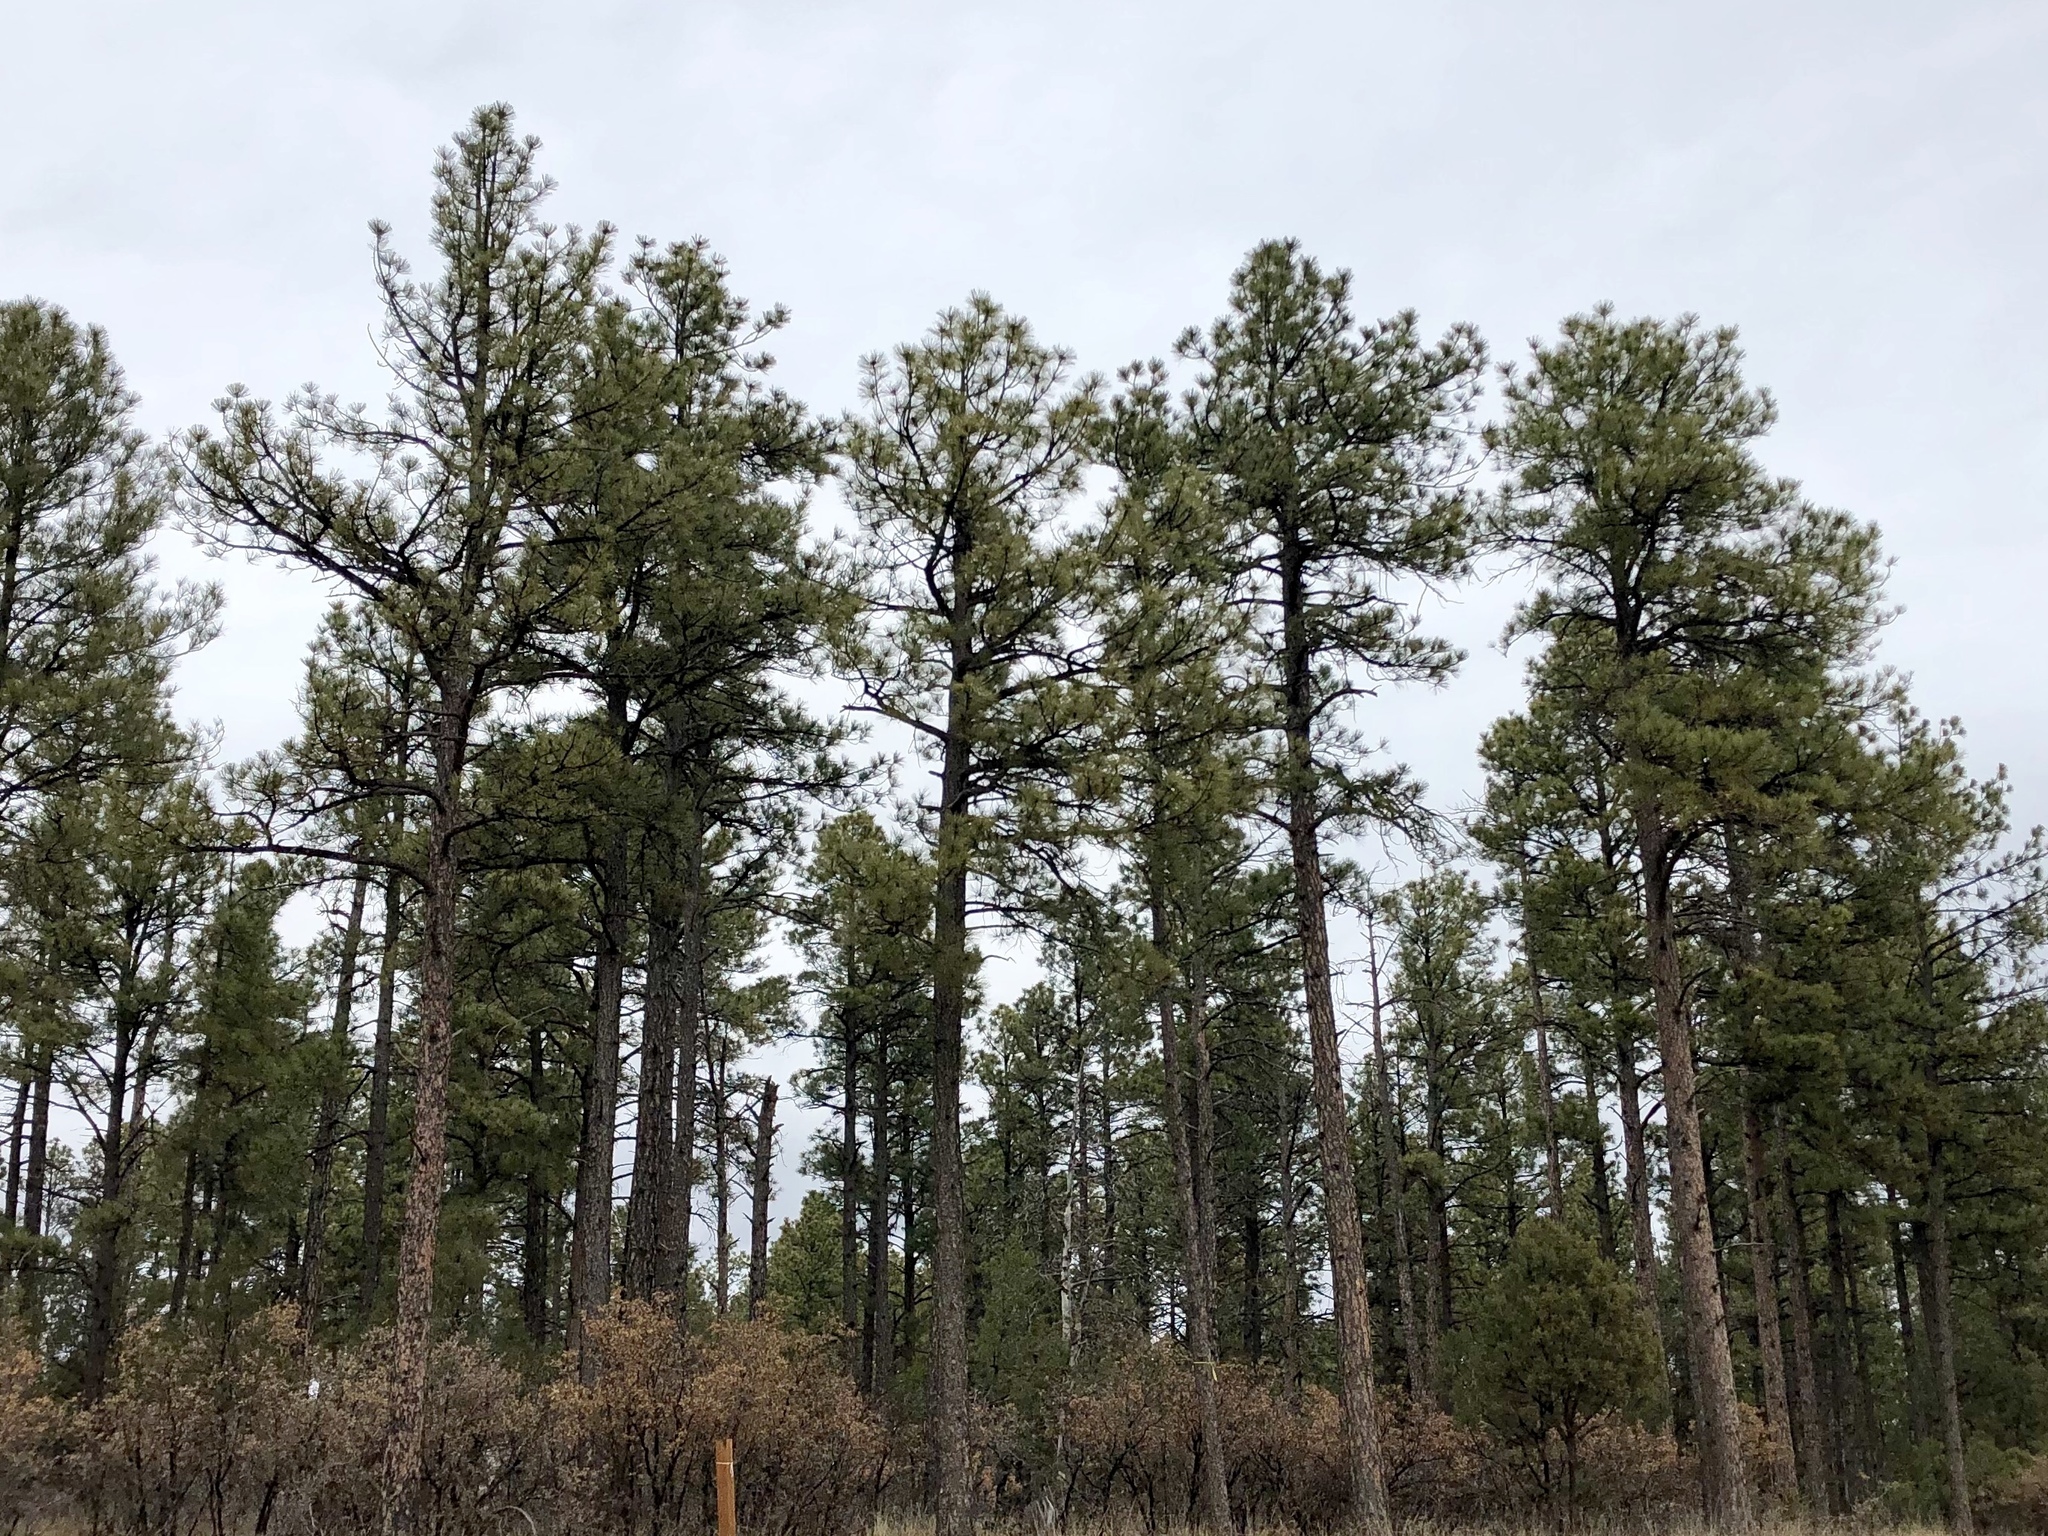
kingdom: Plantae
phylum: Tracheophyta
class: Pinopsida
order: Pinales
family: Pinaceae
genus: Pinus
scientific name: Pinus ponderosa
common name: Western yellow-pine
